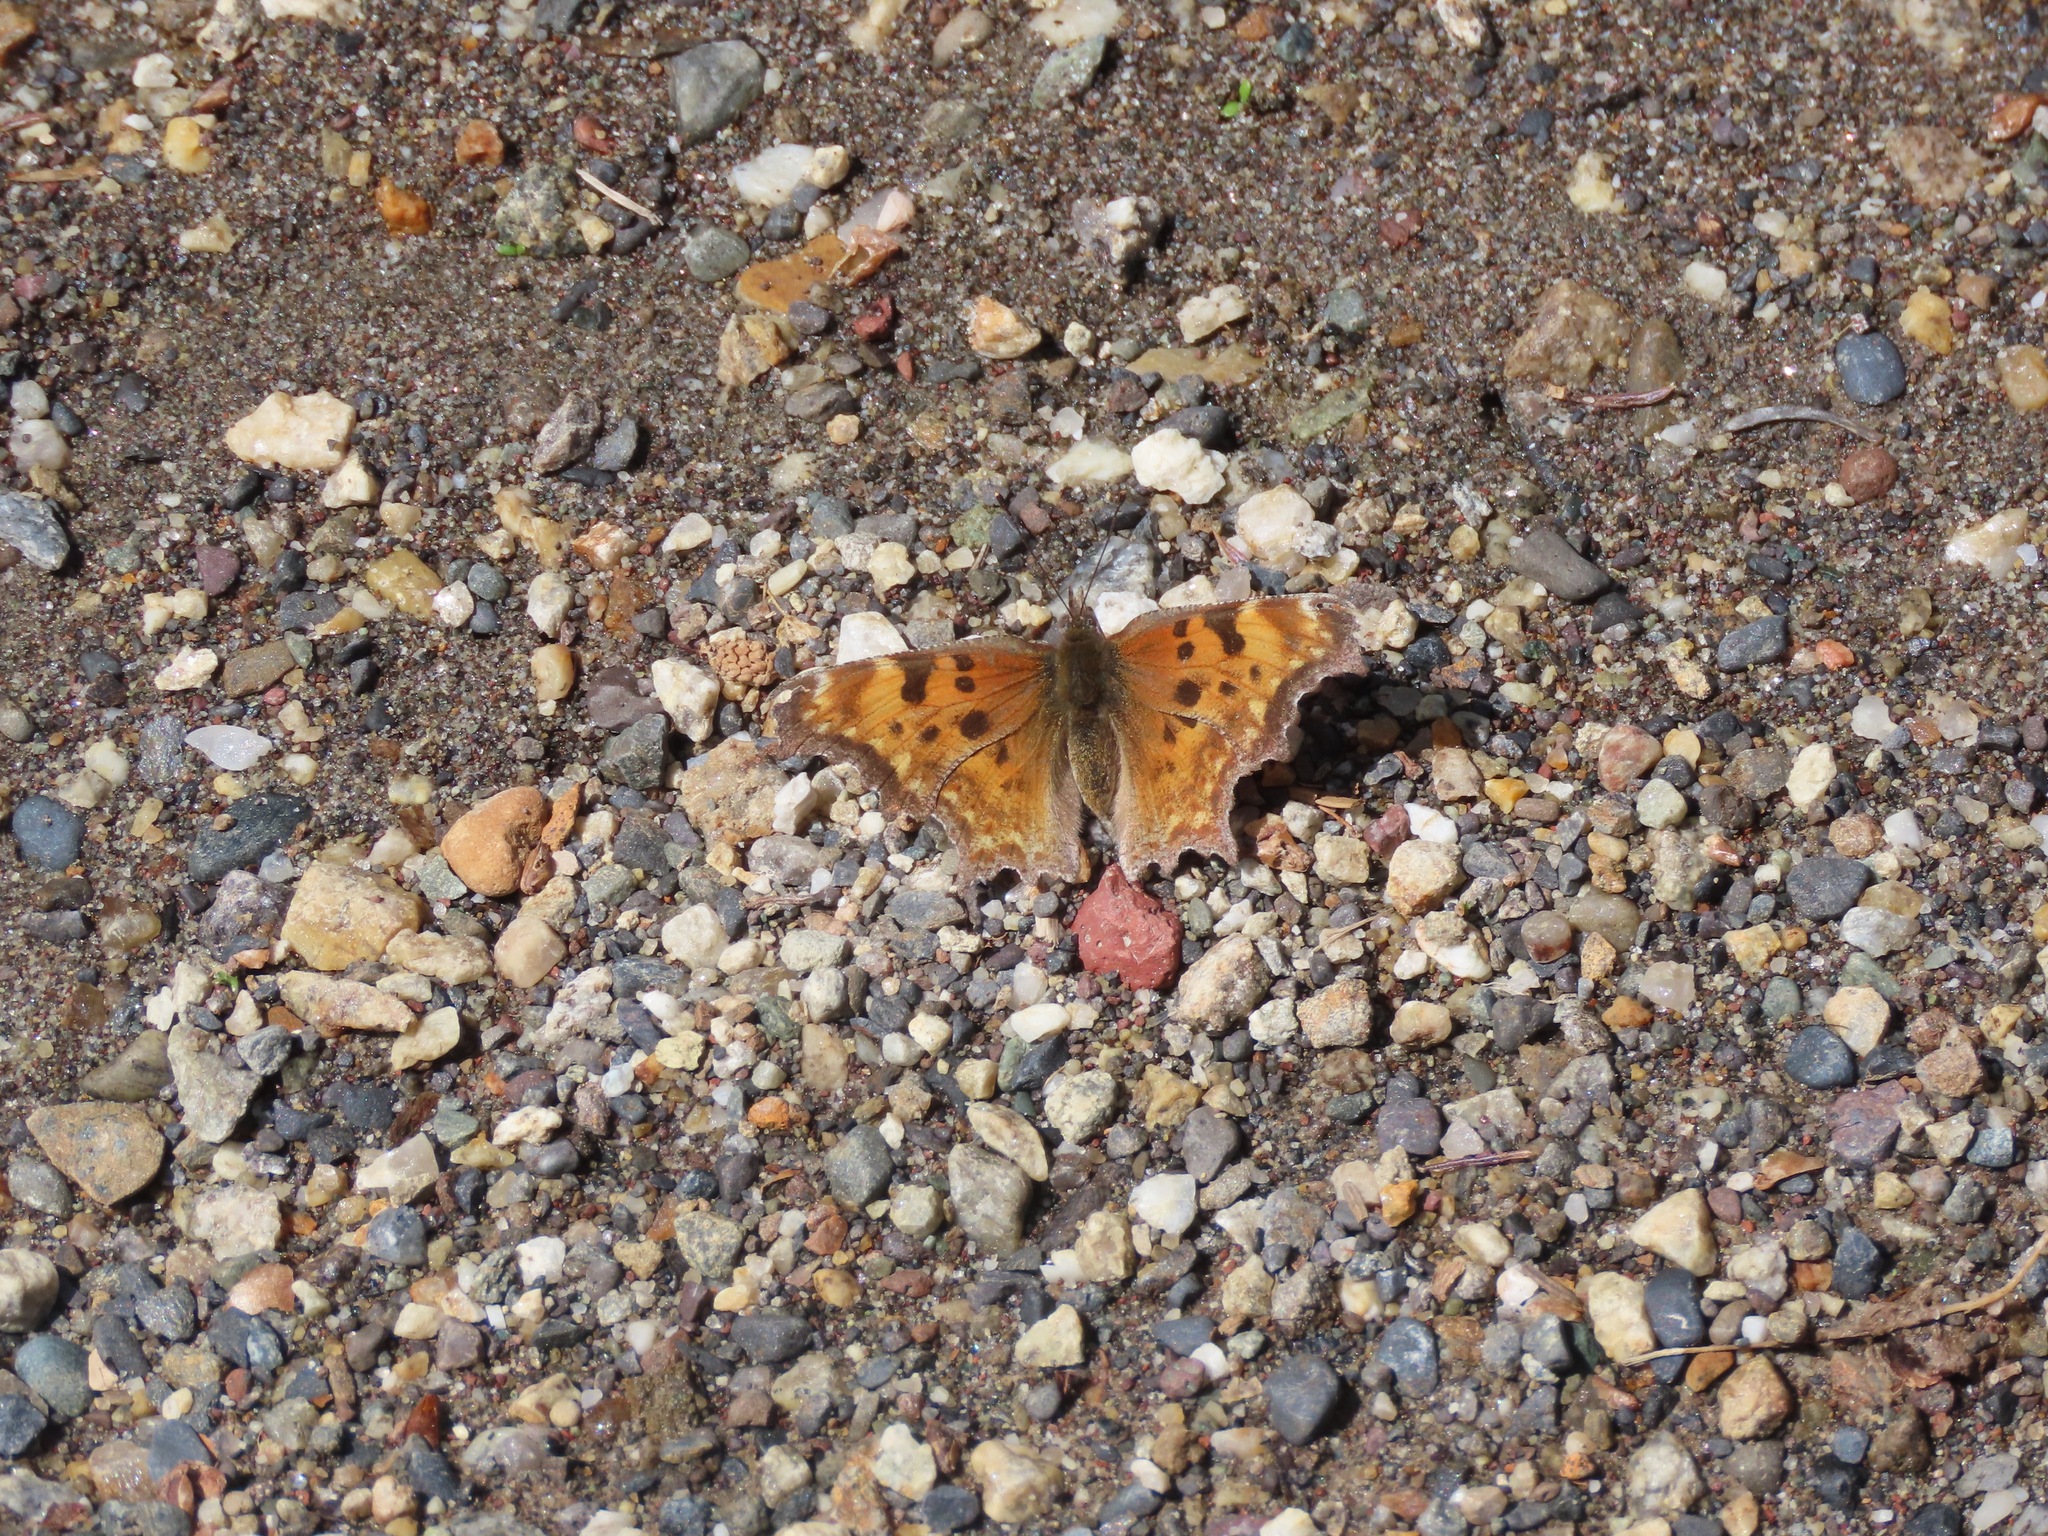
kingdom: Animalia
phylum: Arthropoda
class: Insecta
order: Lepidoptera
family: Nymphalidae
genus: Polygonia
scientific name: Polygonia gracilis
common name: Hoary comma
